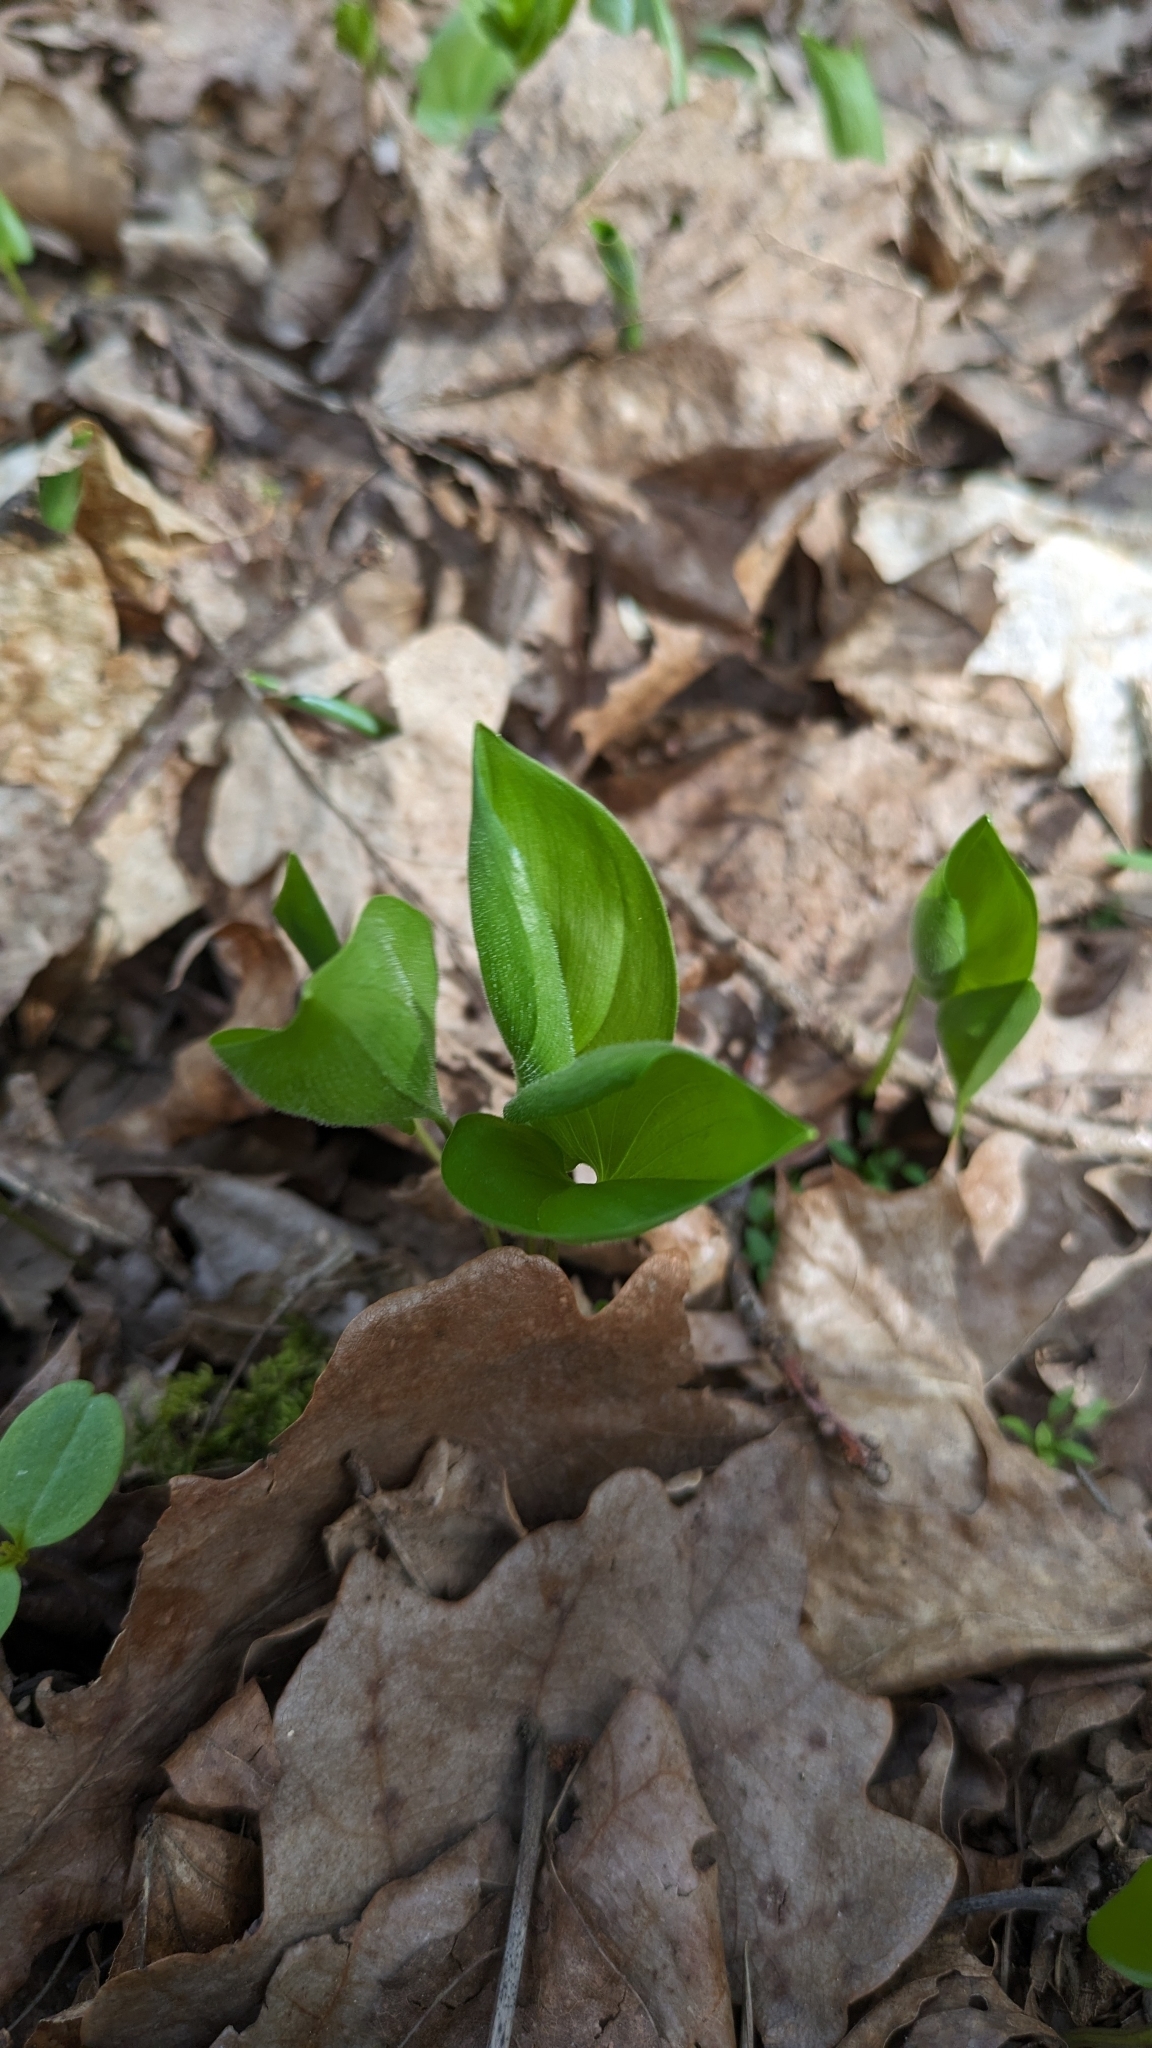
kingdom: Plantae
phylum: Tracheophyta
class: Liliopsida
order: Asparagales
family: Asparagaceae
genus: Maianthemum
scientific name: Maianthemum bifolium
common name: May lily
